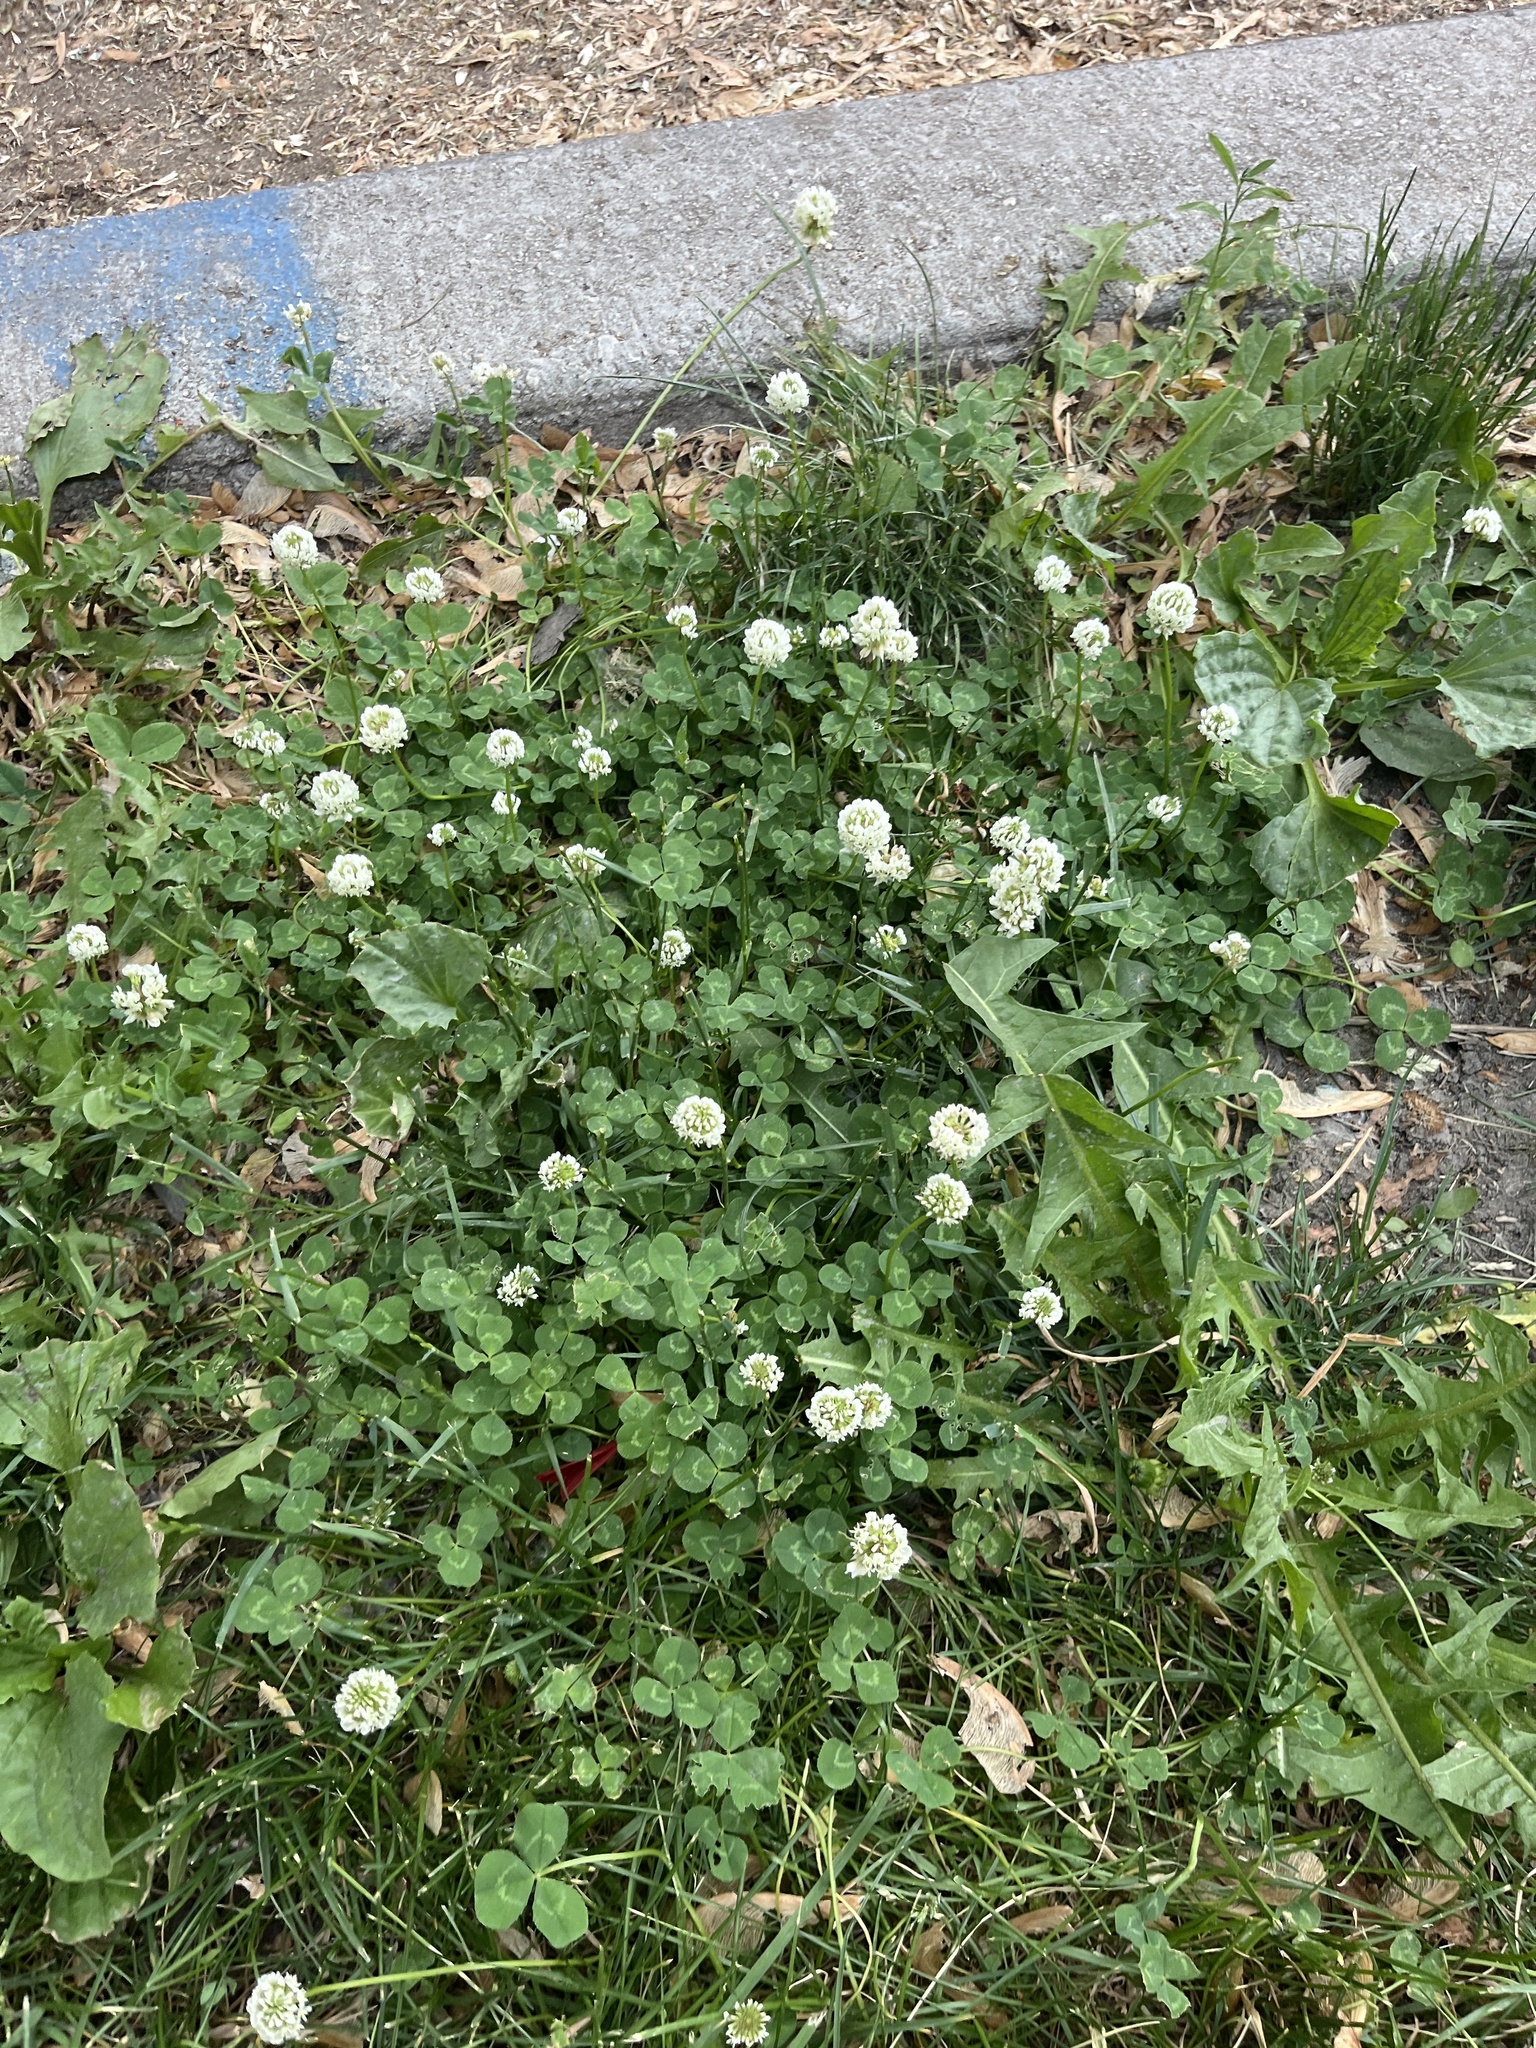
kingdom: Plantae
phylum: Tracheophyta
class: Magnoliopsida
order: Fabales
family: Fabaceae
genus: Trifolium
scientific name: Trifolium repens
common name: White clover
